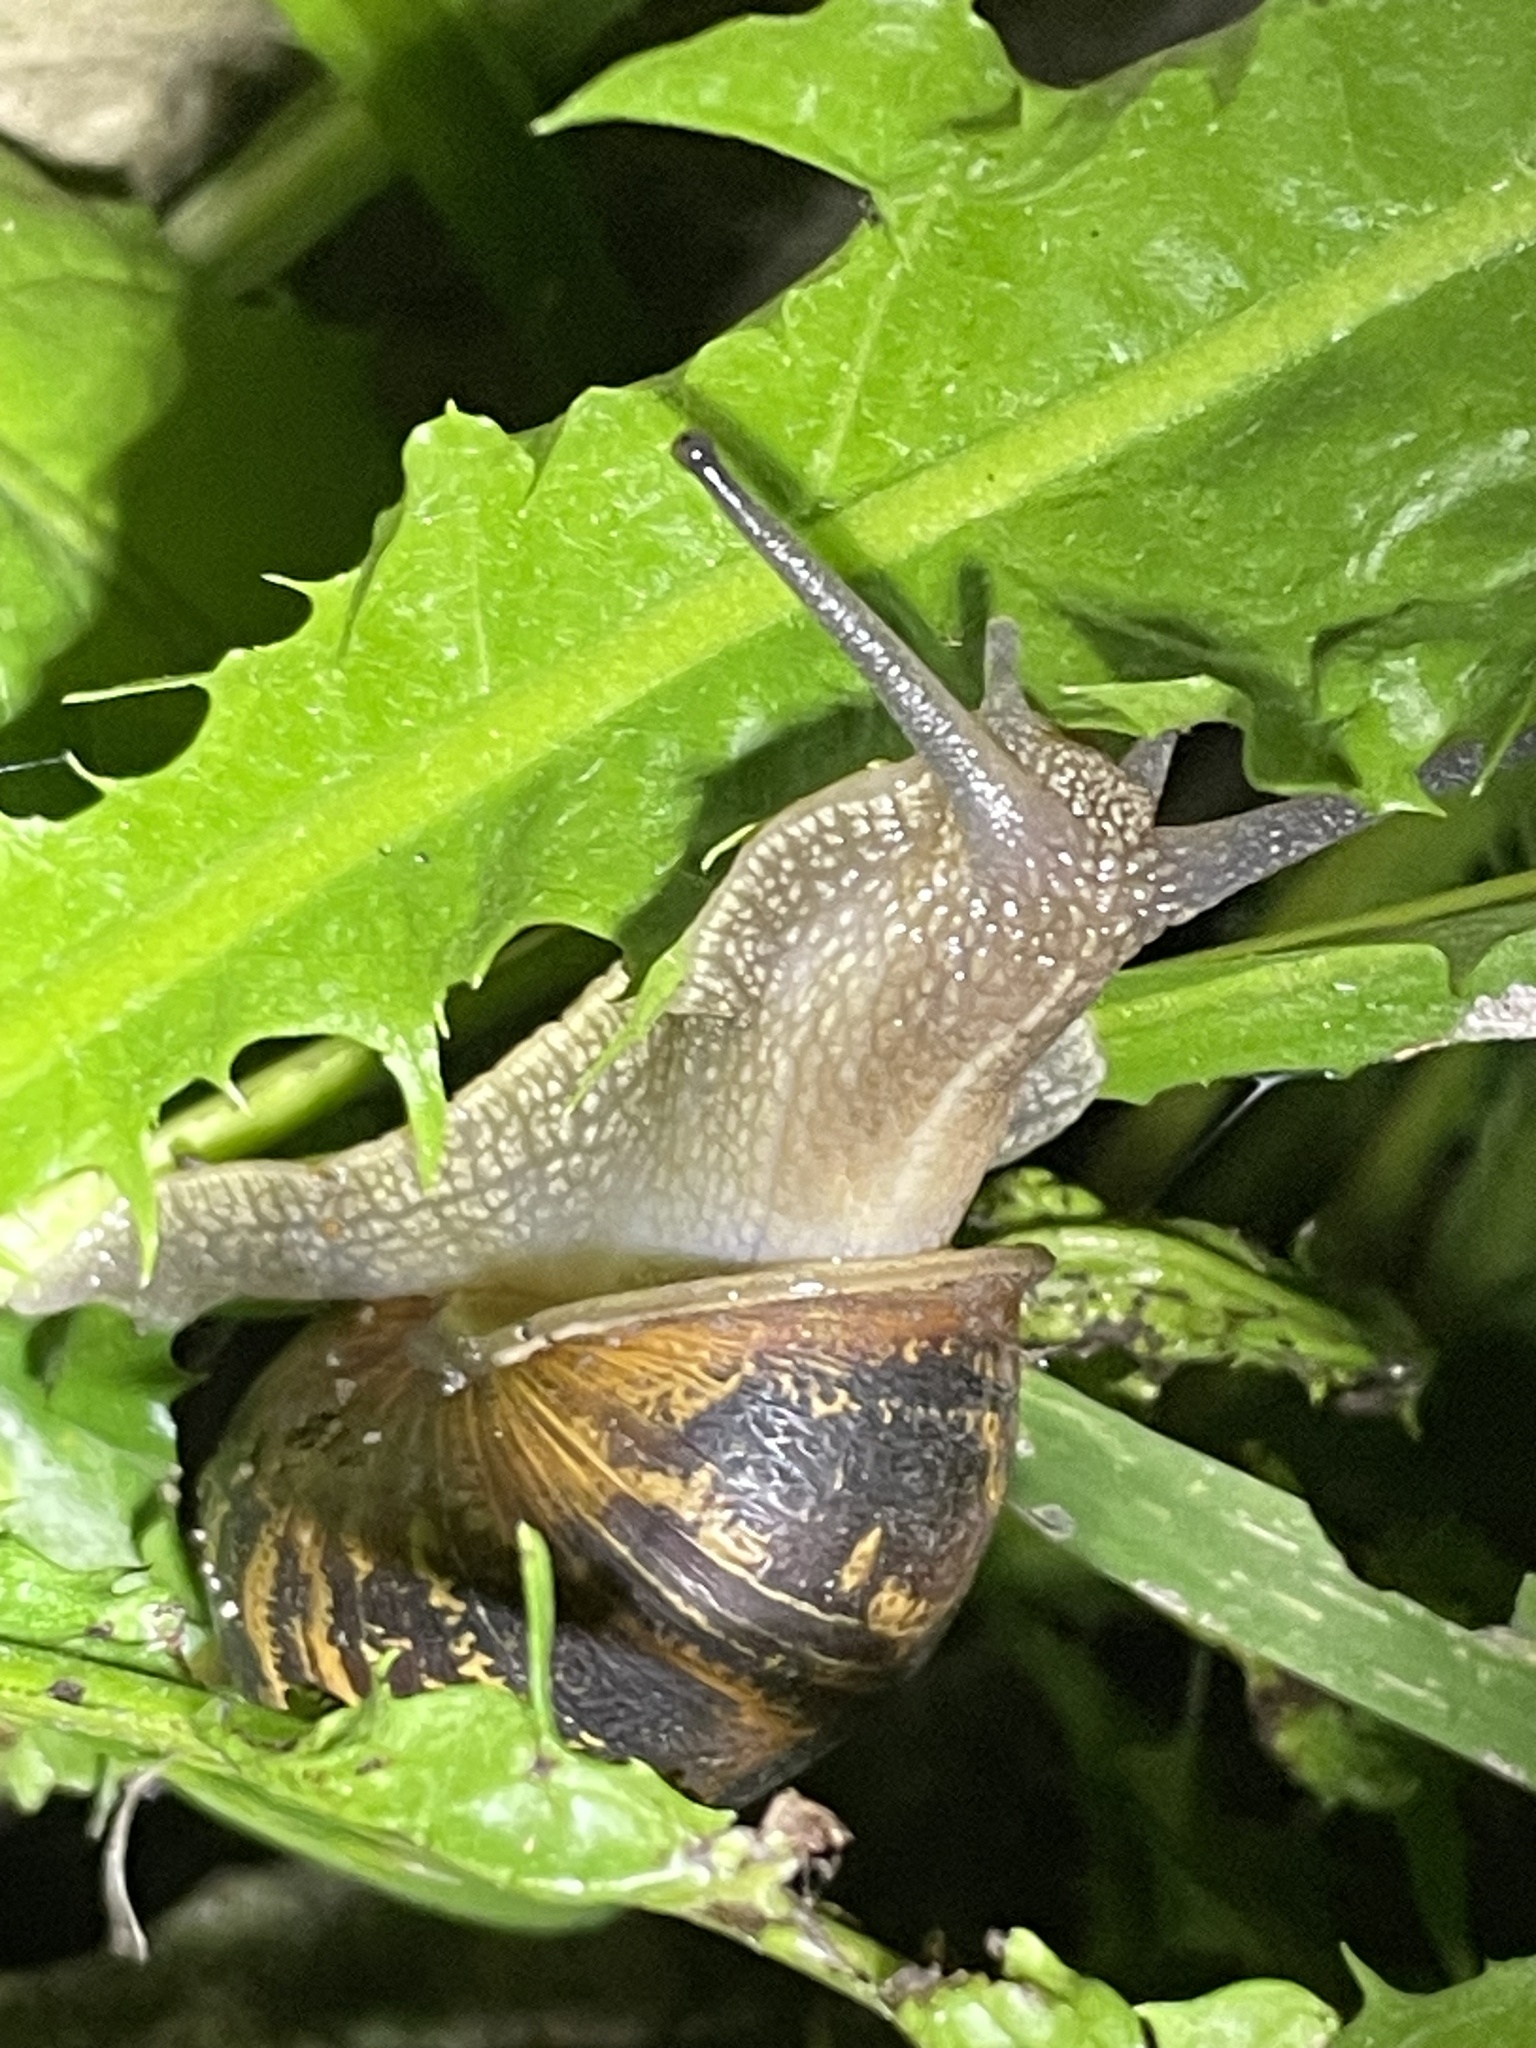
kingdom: Animalia
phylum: Mollusca
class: Gastropoda
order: Stylommatophora
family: Helicidae
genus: Cornu
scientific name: Cornu aspersum
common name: Brown garden snail
